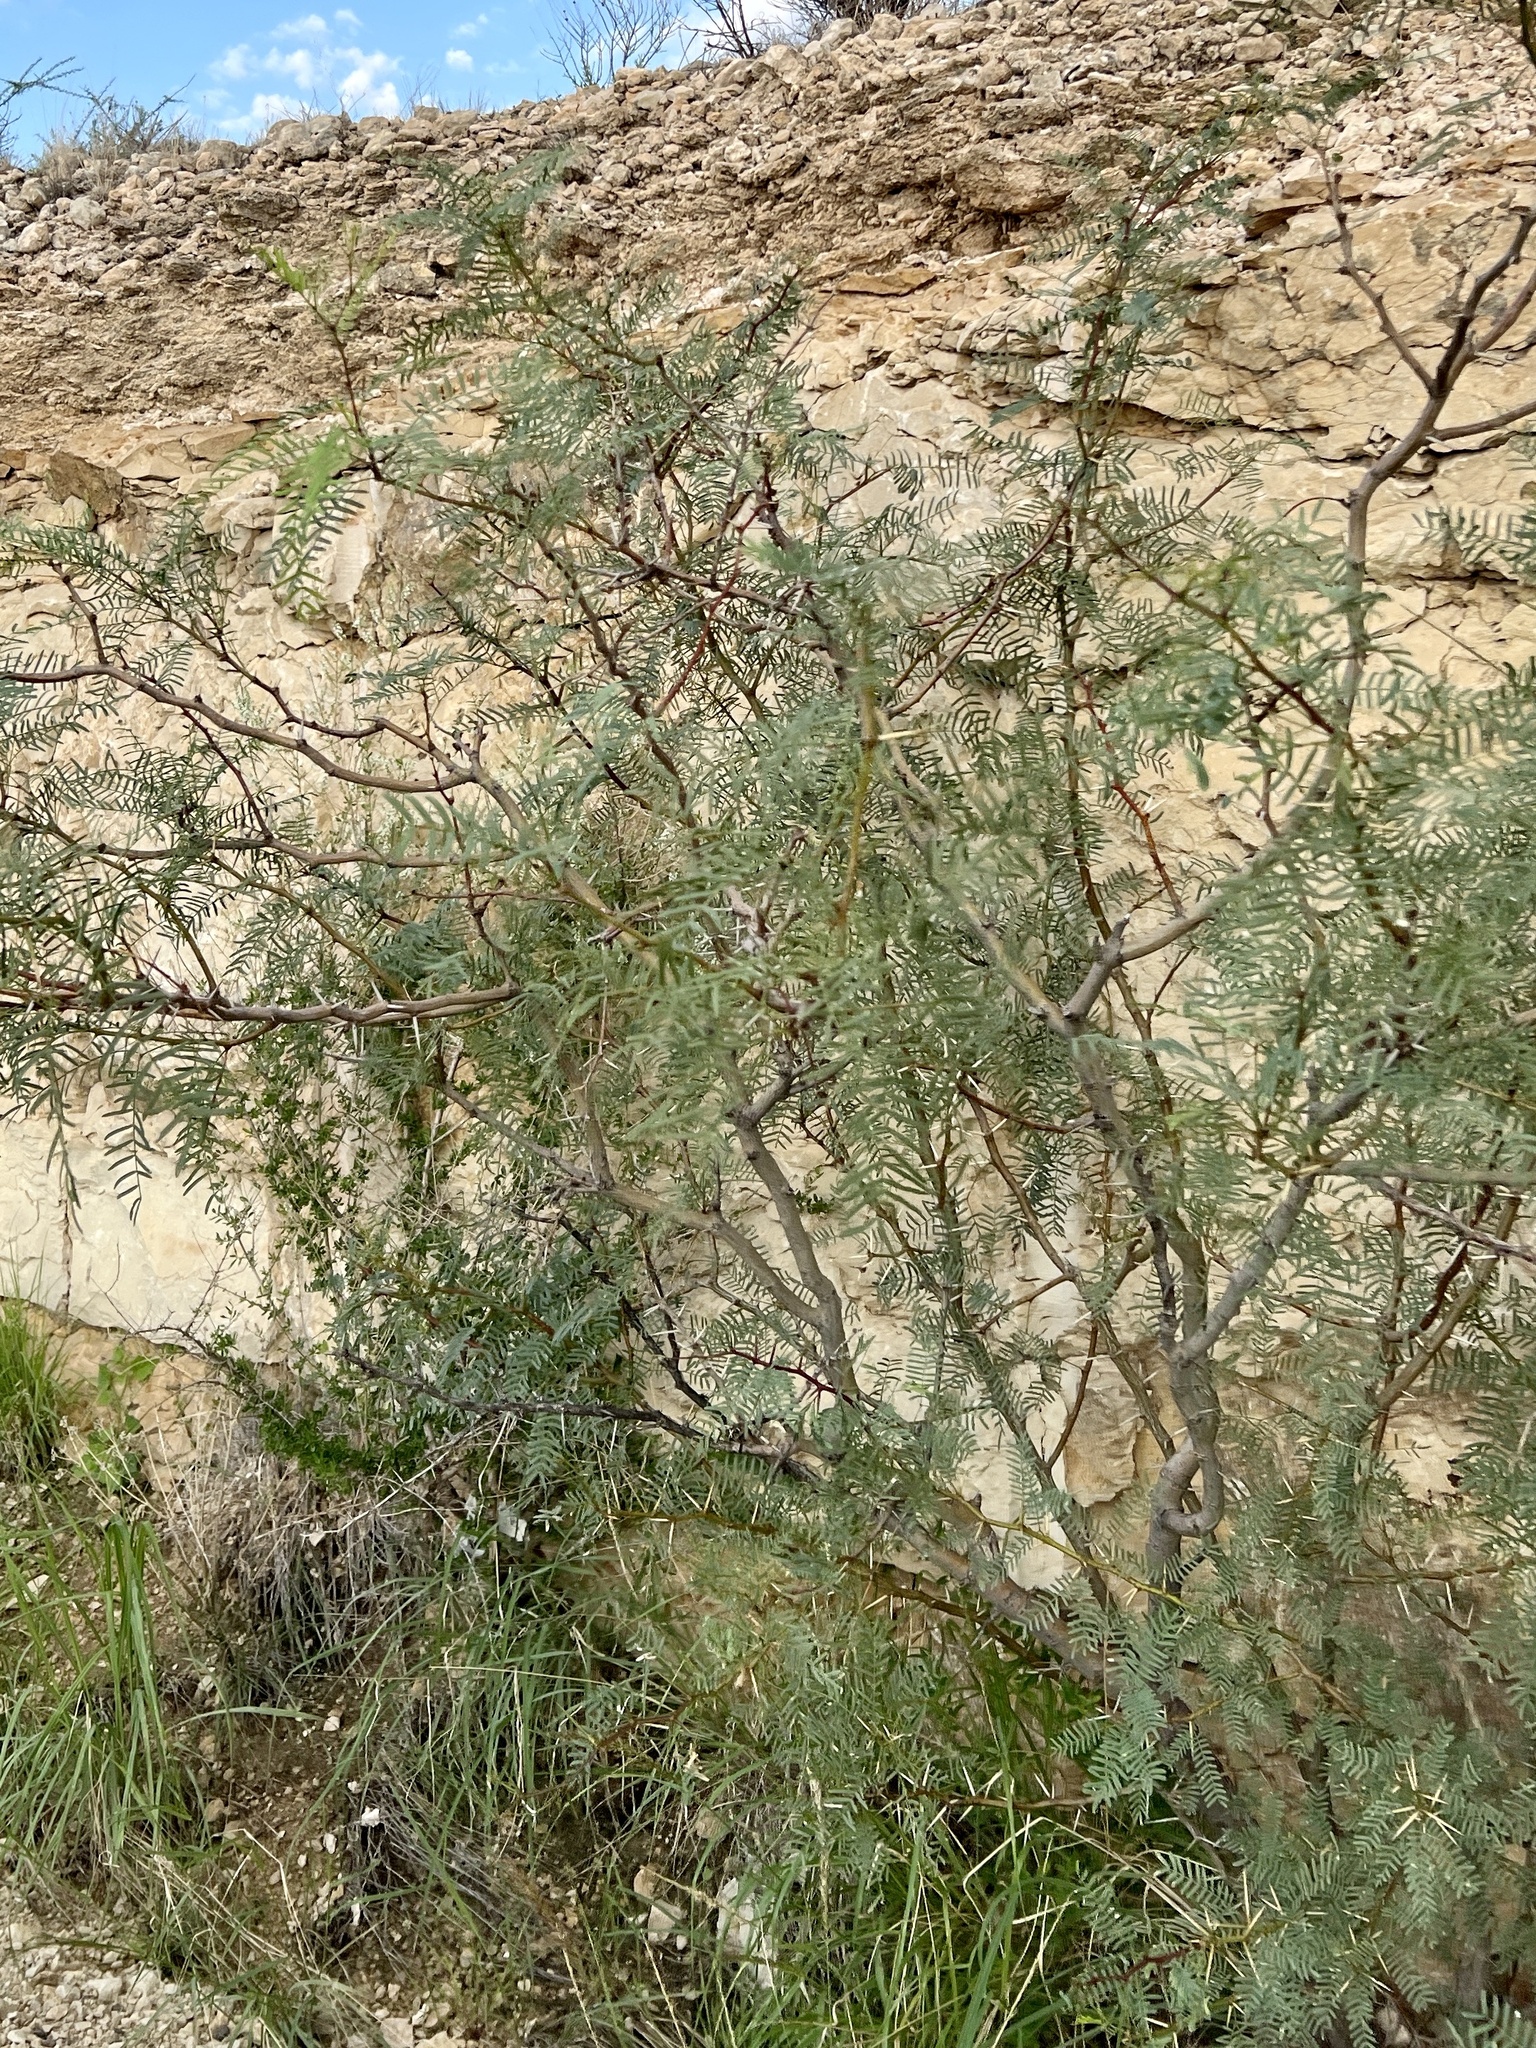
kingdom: Plantae
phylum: Tracheophyta
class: Magnoliopsida
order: Fabales
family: Fabaceae
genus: Prosopis
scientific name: Prosopis glandulosa
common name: Honey mesquite
